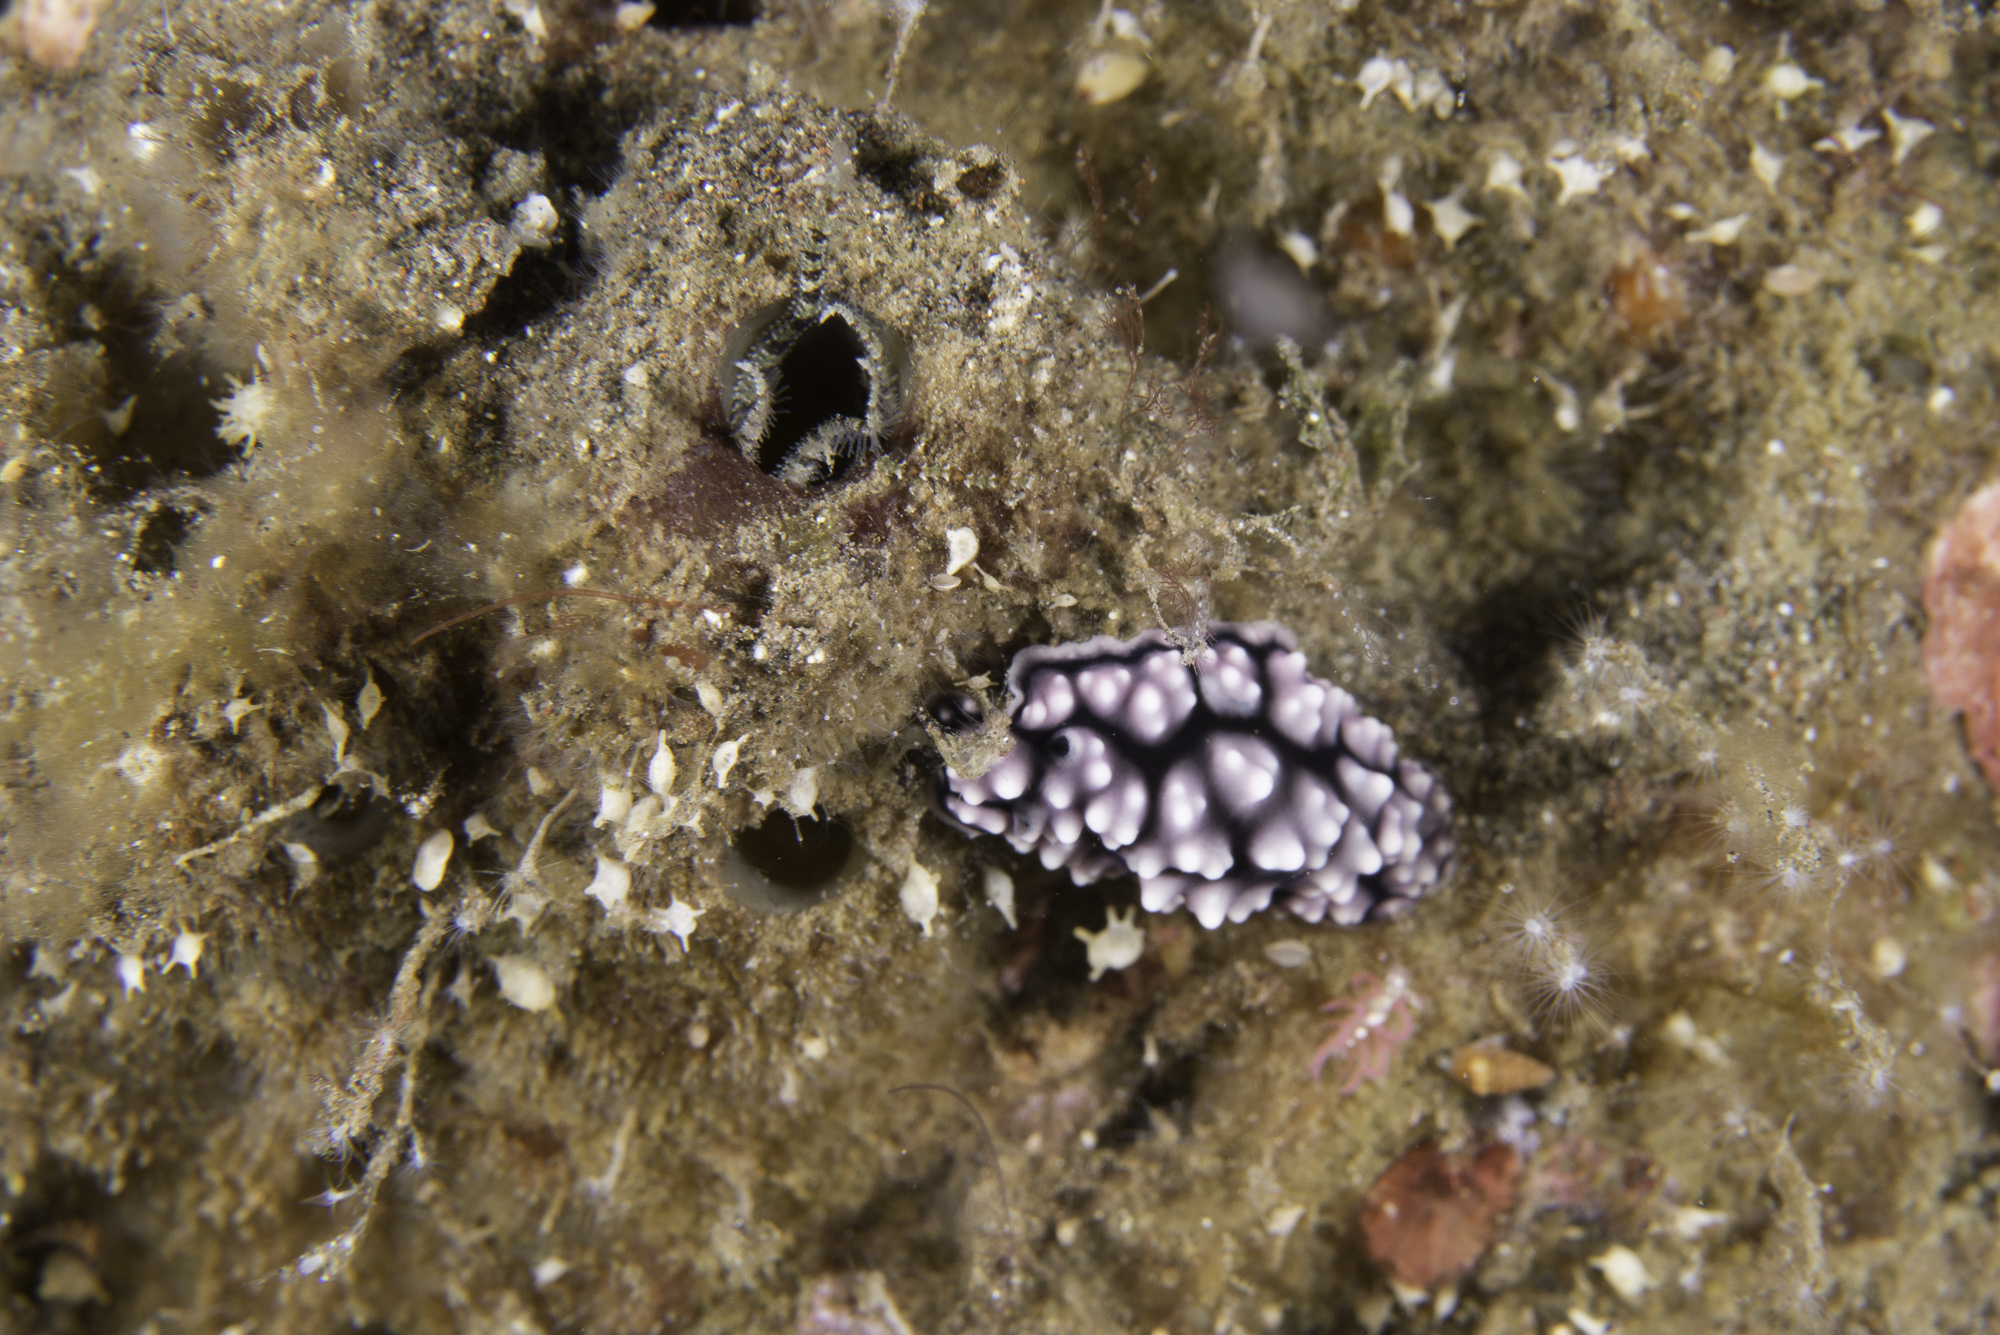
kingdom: Animalia
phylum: Mollusca
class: Gastropoda
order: Nudibranchia
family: Phyllidiidae
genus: Phyllidiella
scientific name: Phyllidiella pustulosa
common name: Pustular phyllidia
